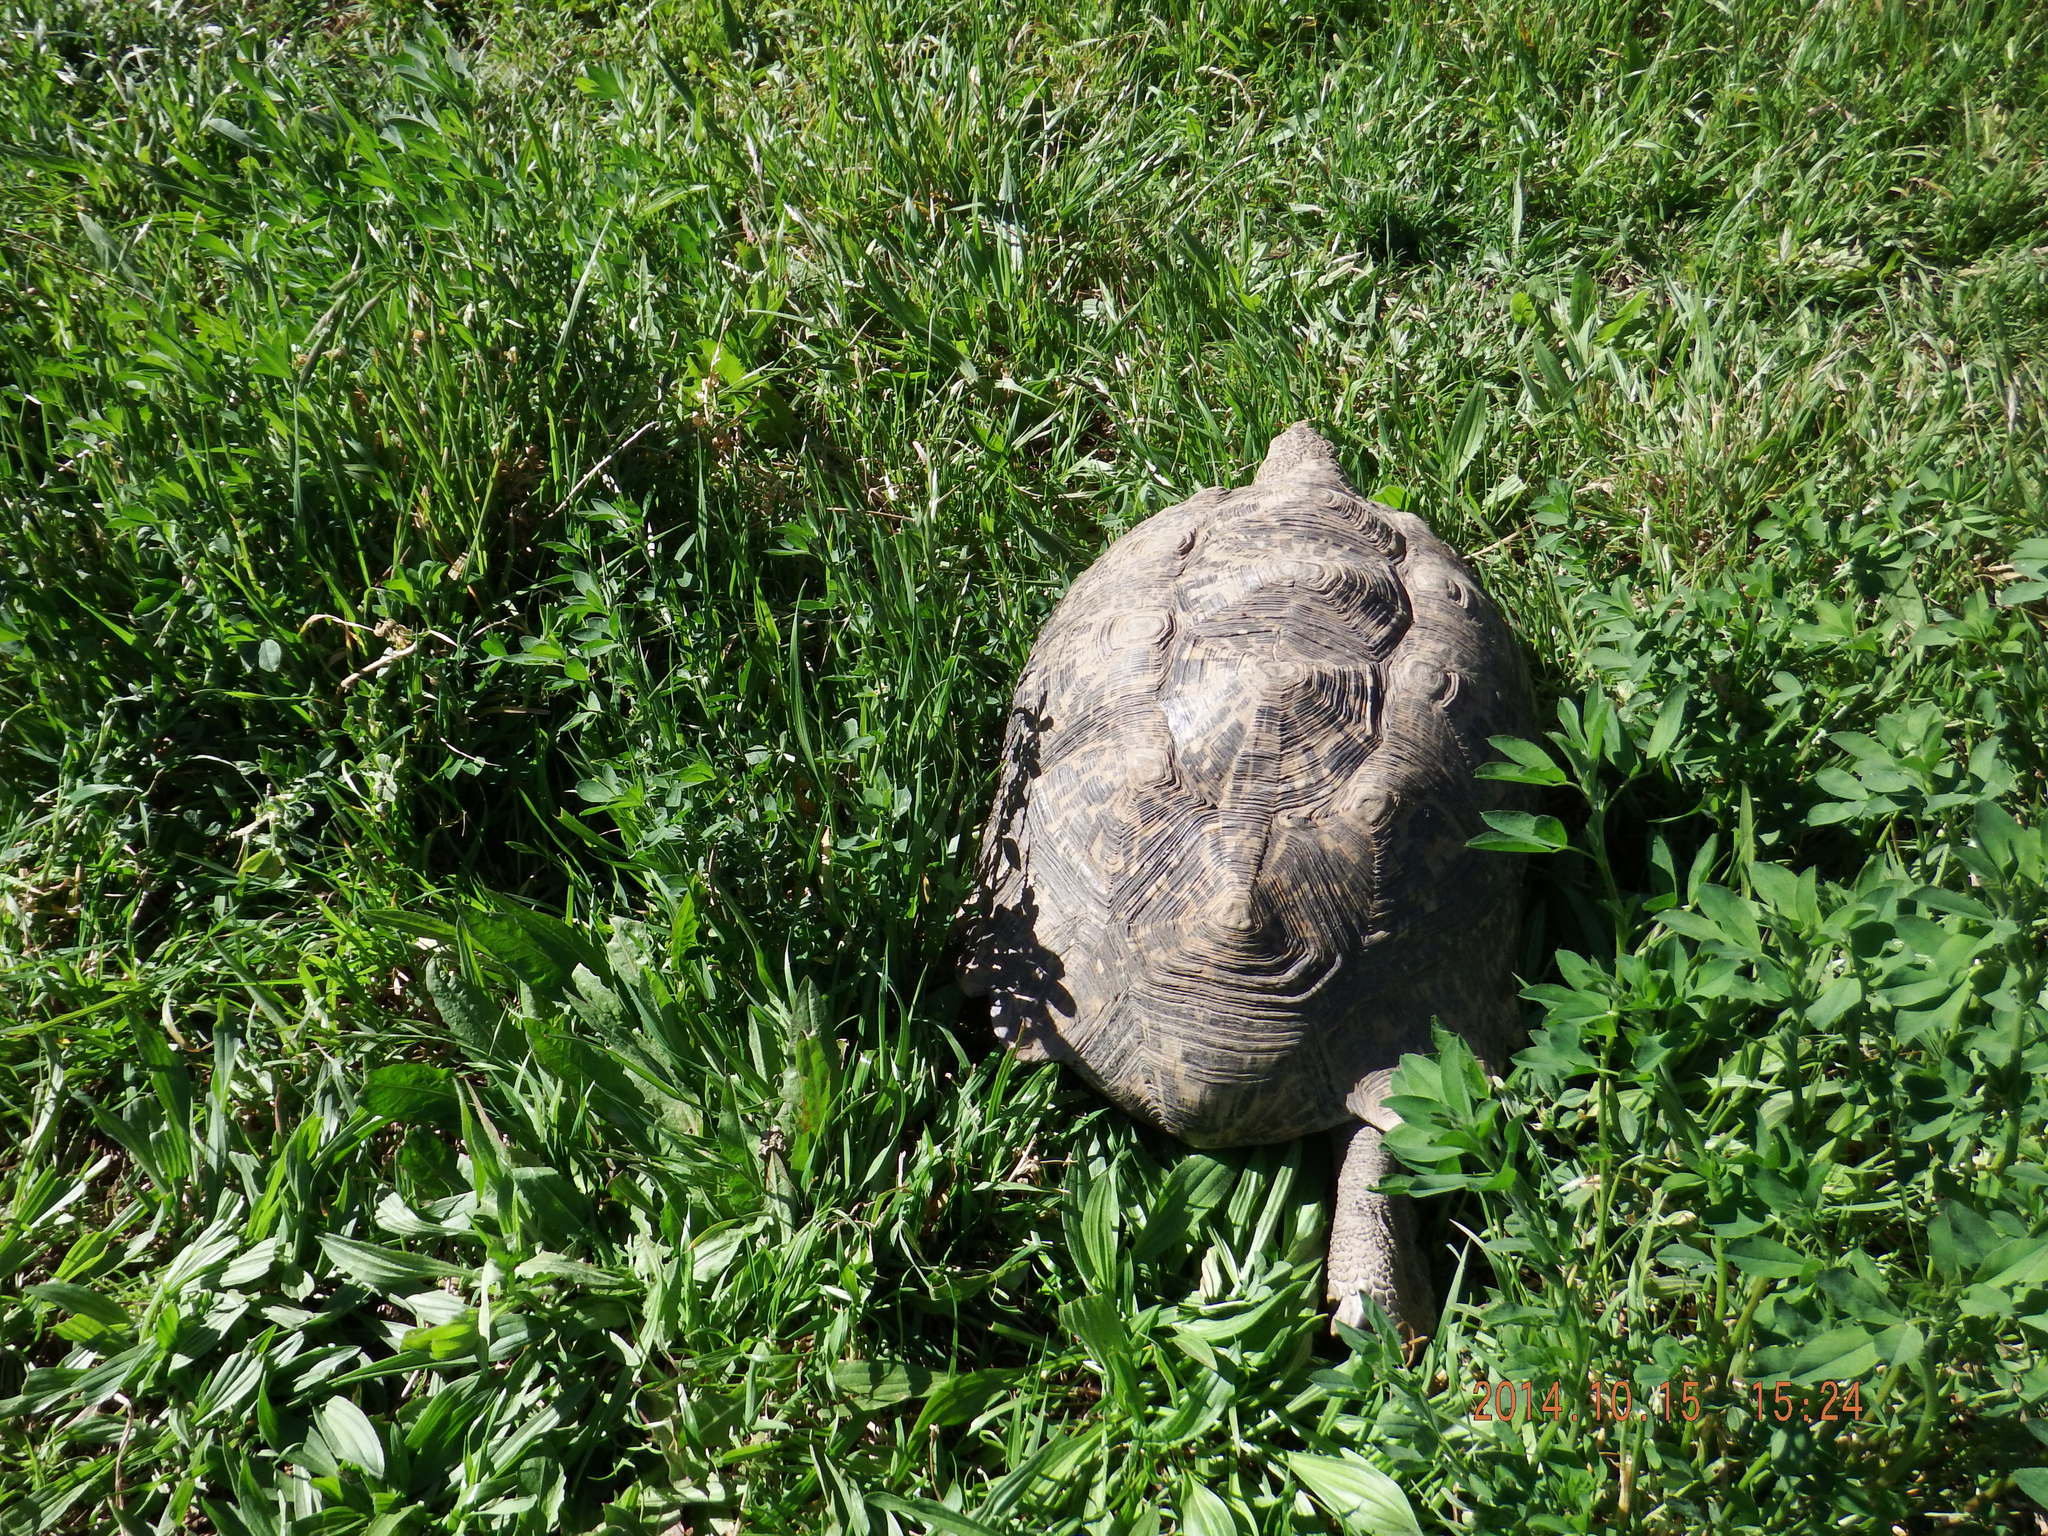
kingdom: Animalia
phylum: Chordata
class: Testudines
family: Testudinidae
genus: Stigmochelys
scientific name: Stigmochelys pardalis
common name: Leopard tortoise
